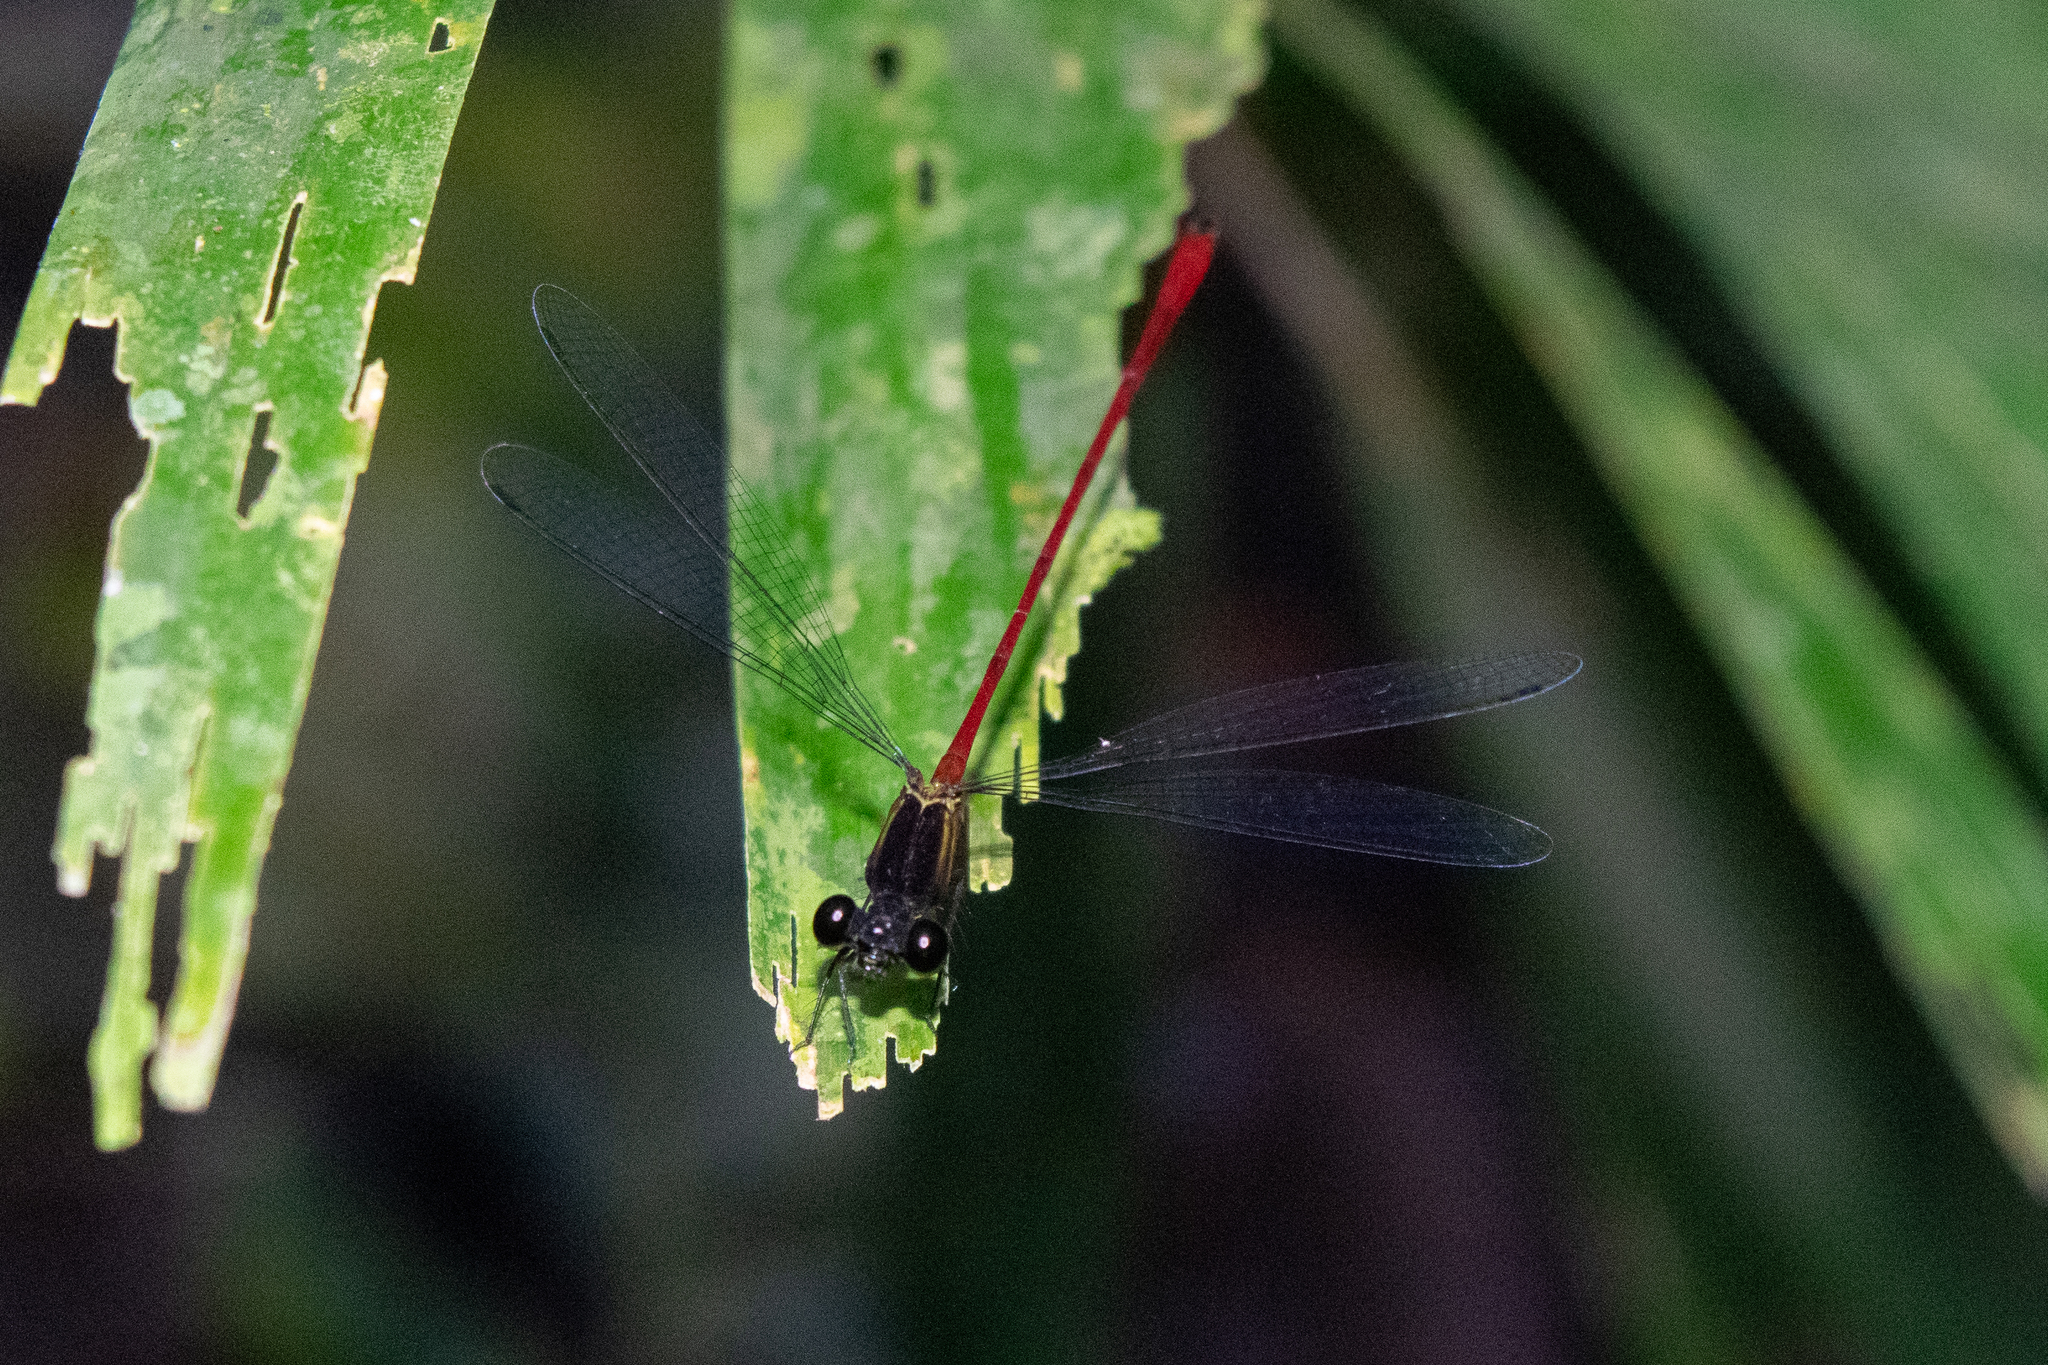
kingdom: Animalia
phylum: Arthropoda
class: Insecta
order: Odonata
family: Heteragrionidae
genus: Heteragrion
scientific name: Heteragrion erythrogastrum
